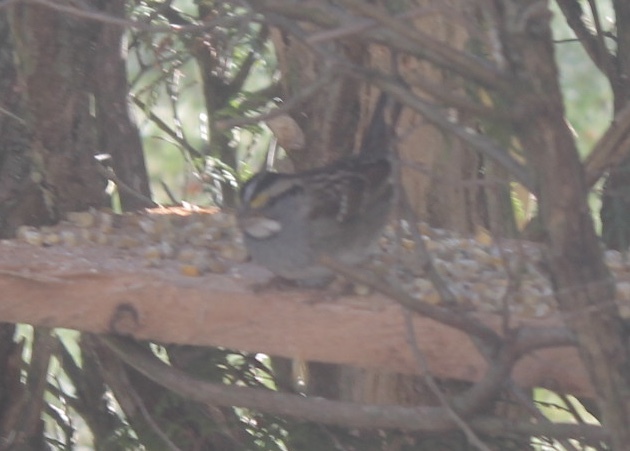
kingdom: Animalia
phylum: Chordata
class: Aves
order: Passeriformes
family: Passerellidae
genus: Zonotrichia
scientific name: Zonotrichia albicollis
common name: White-throated sparrow
